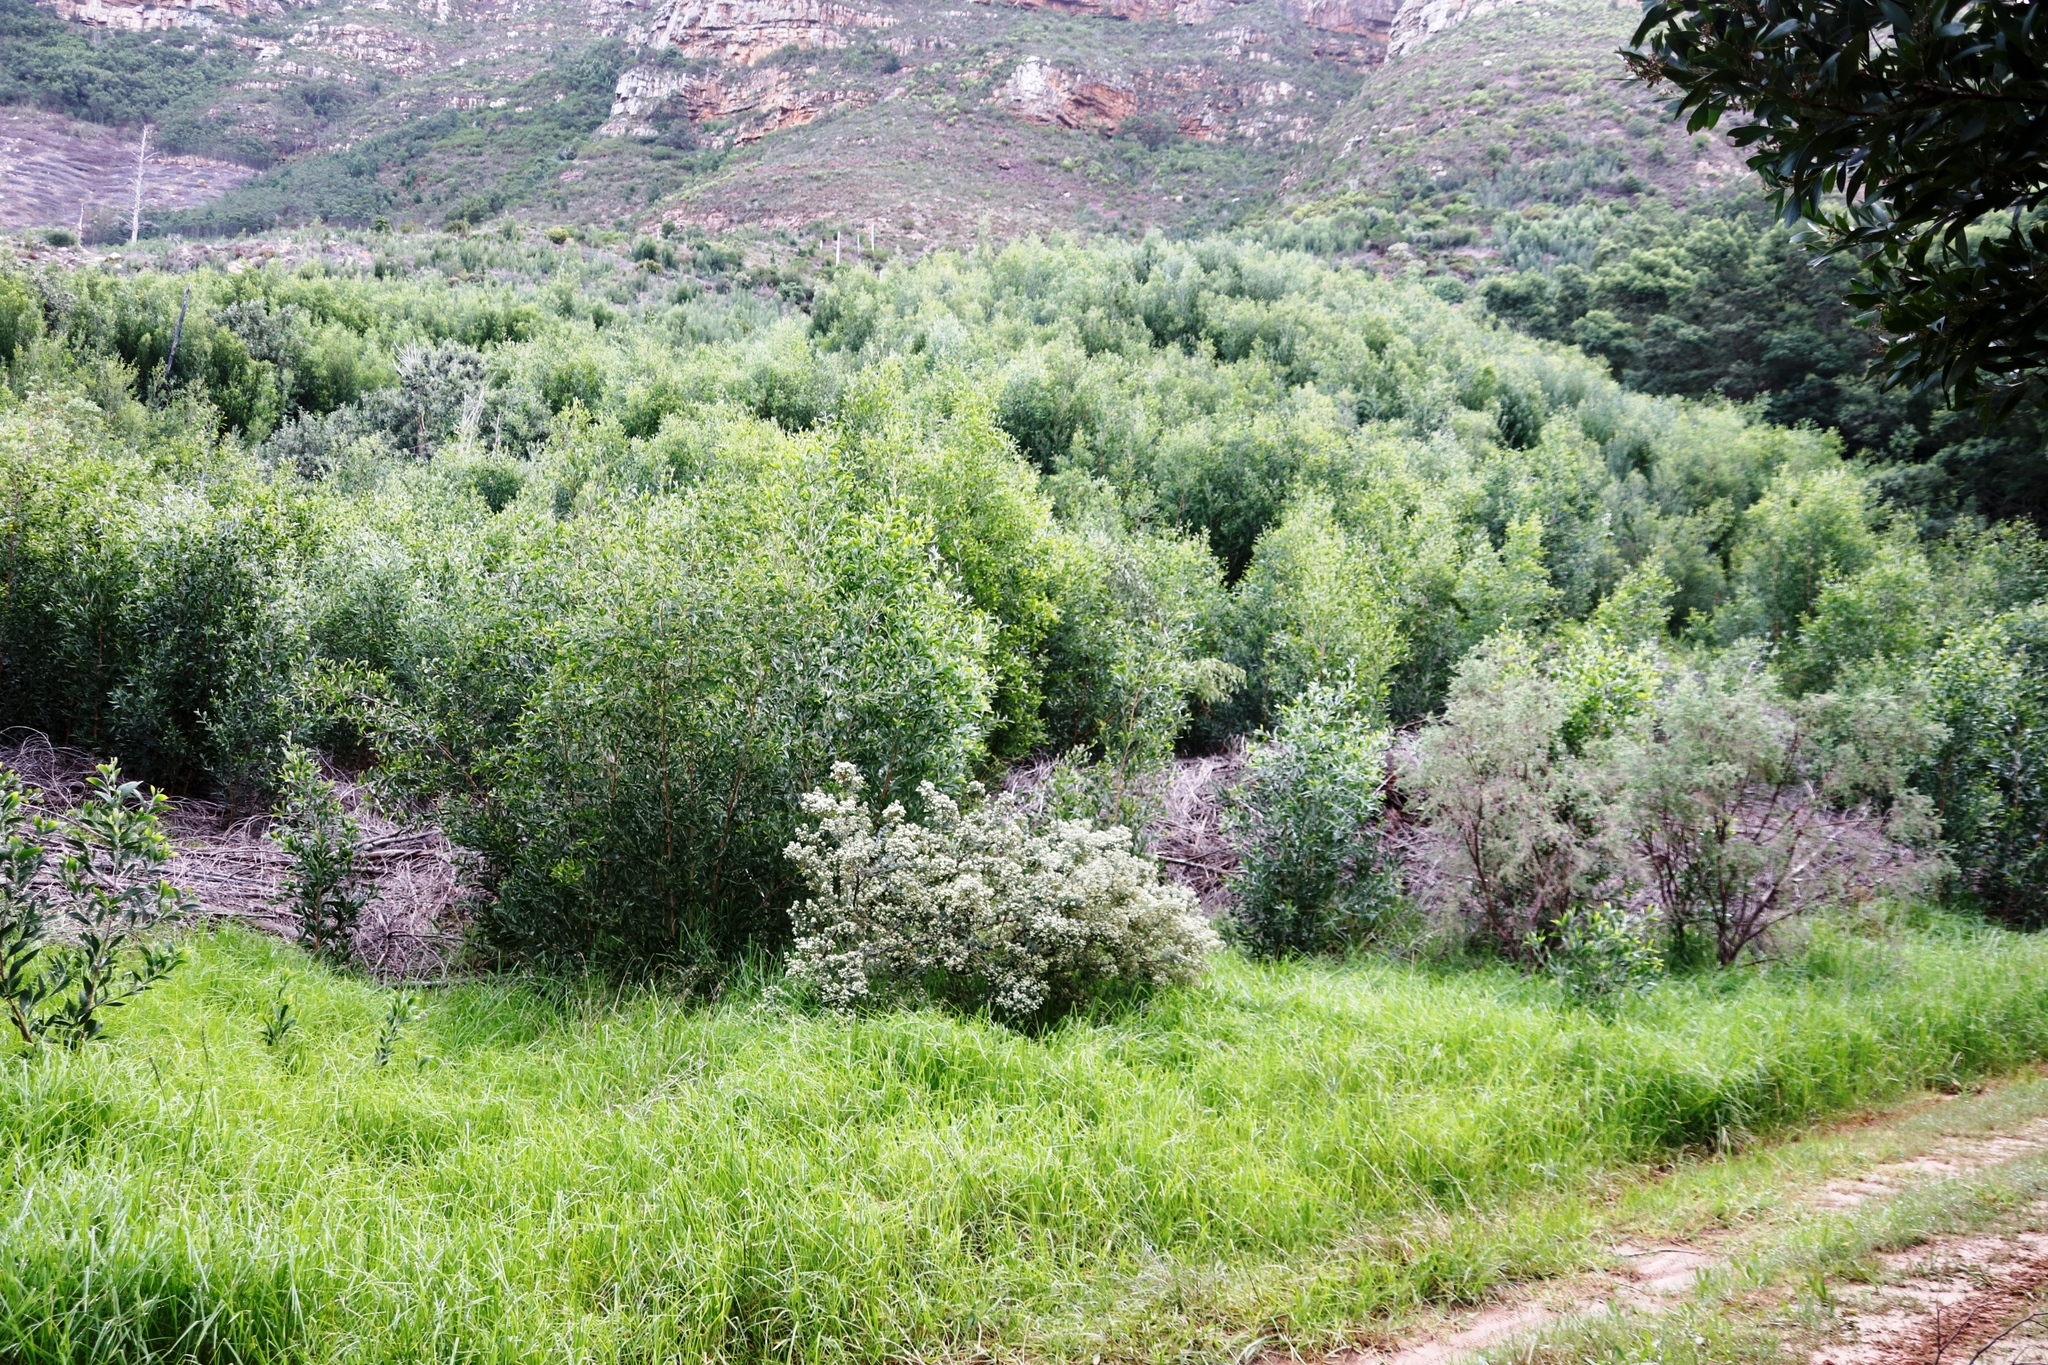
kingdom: Plantae
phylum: Tracheophyta
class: Liliopsida
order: Poales
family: Poaceae
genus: Cenchrus
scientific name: Cenchrus clandestinus
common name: Kikuyugrass
